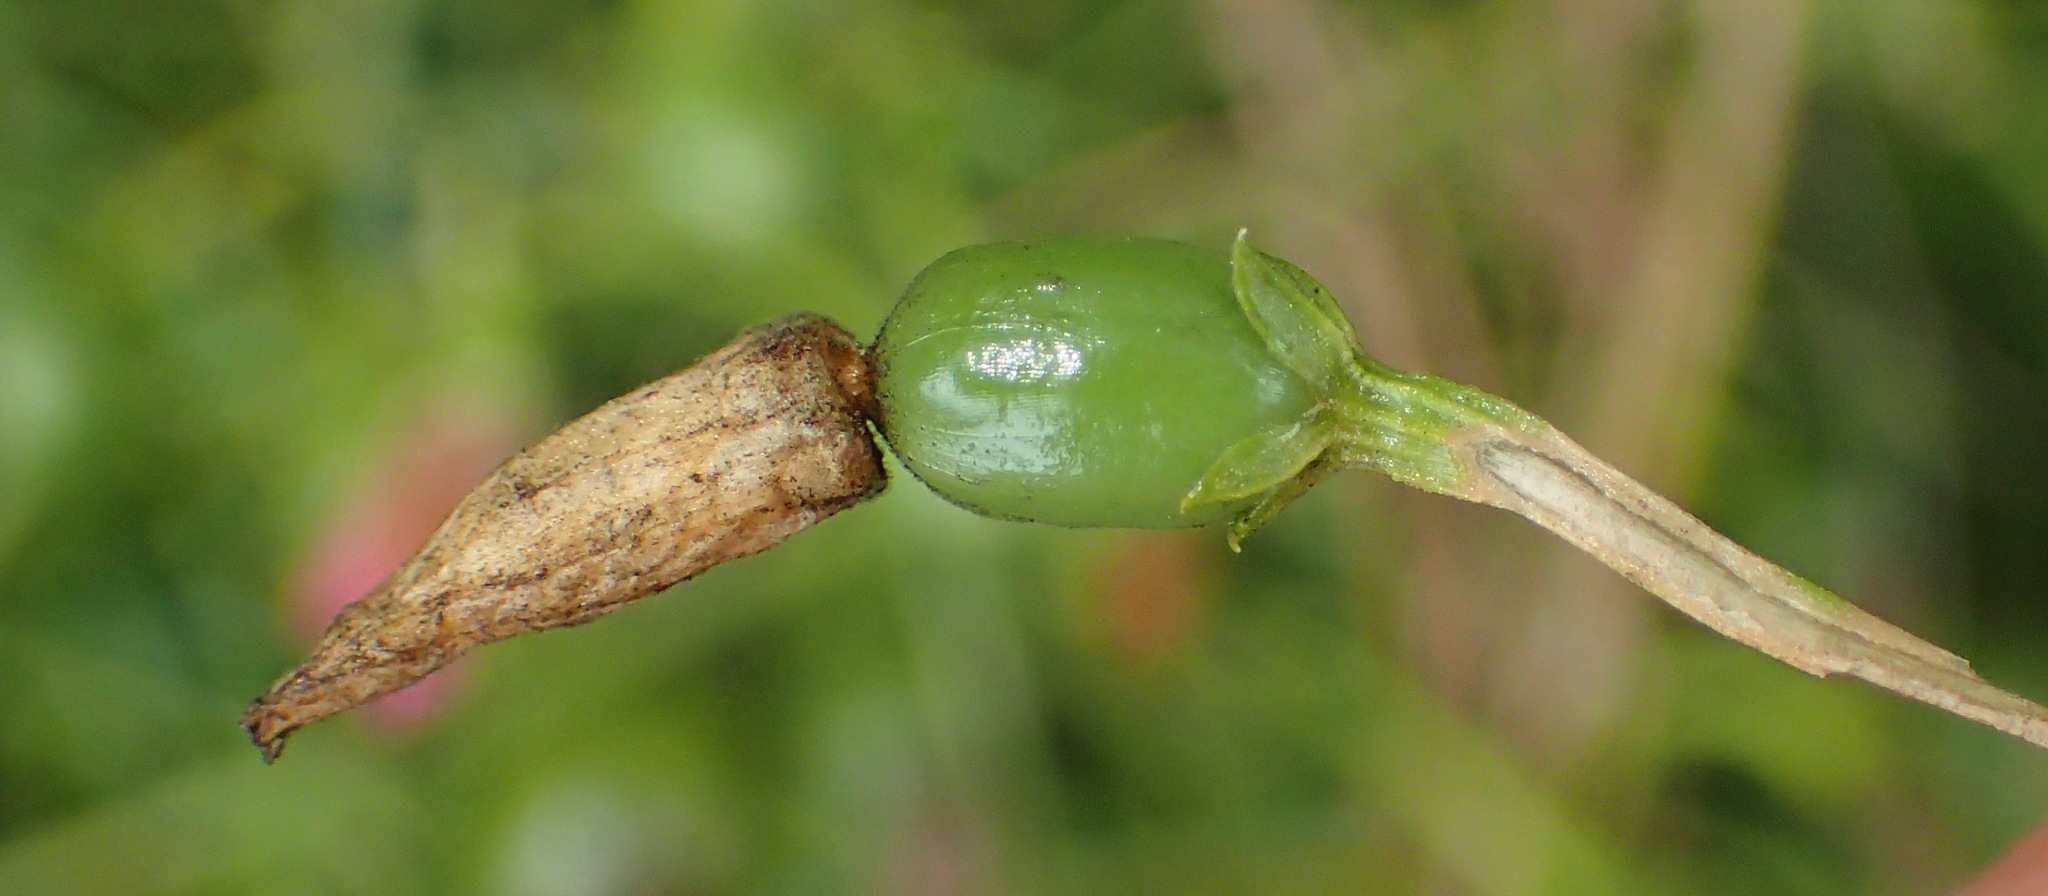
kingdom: Plantae
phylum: Tracheophyta
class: Magnoliopsida
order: Gentianales
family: Gentianaceae
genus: Chironia
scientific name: Chironia baccifera
